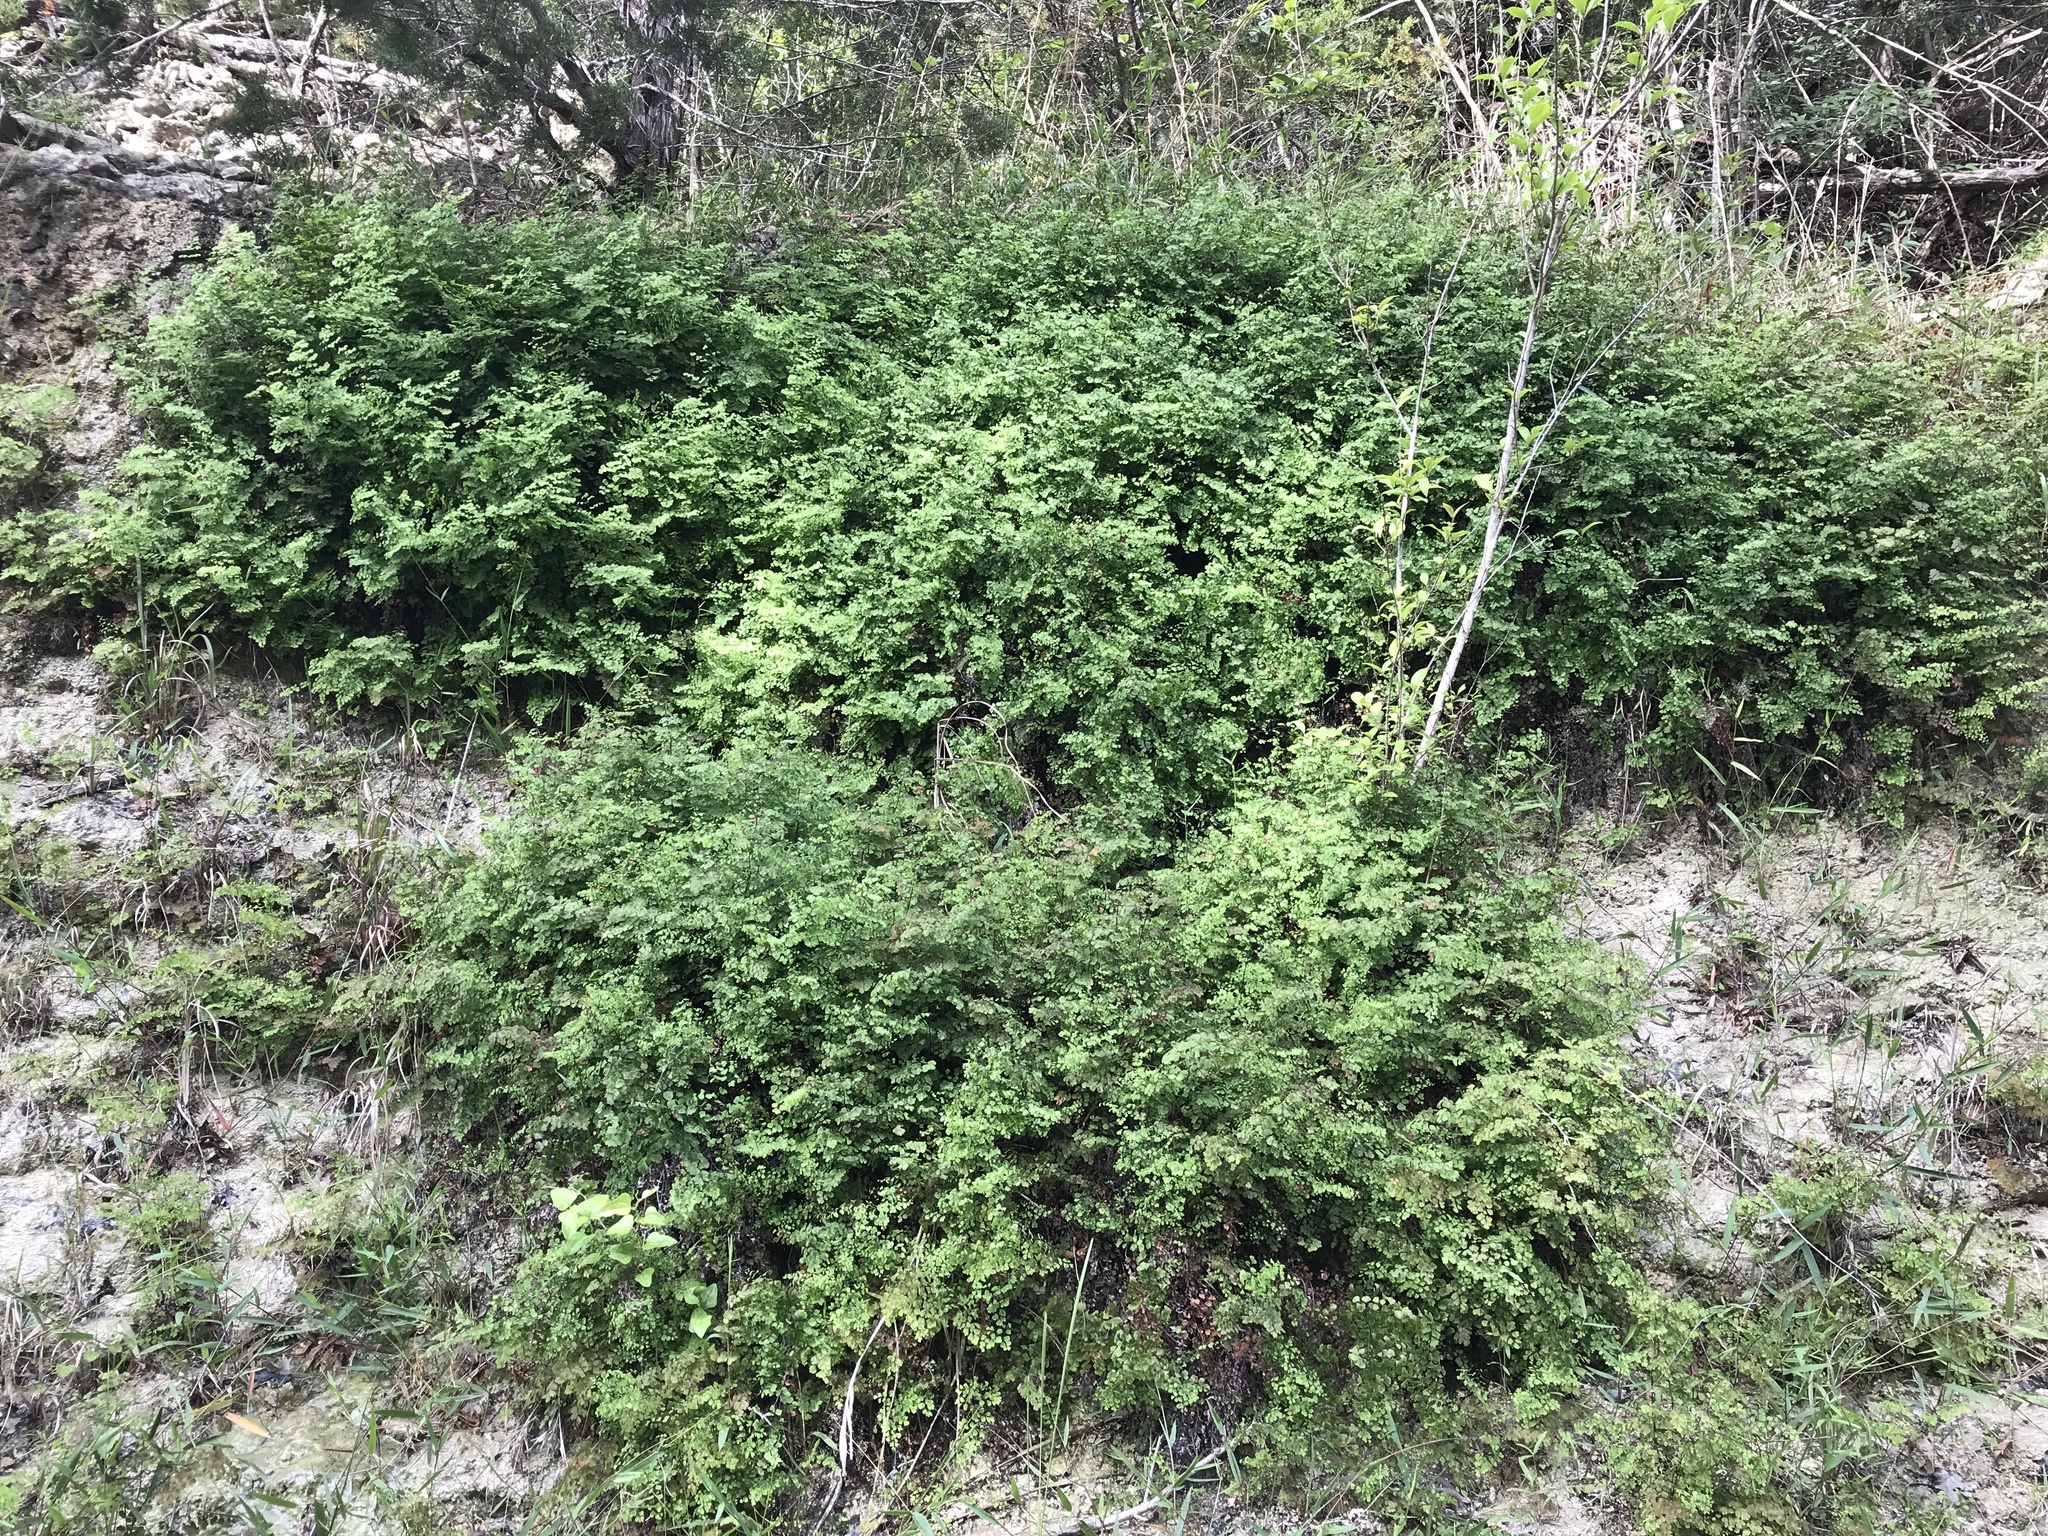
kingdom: Plantae
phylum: Tracheophyta
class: Polypodiopsida
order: Polypodiales
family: Pteridaceae
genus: Adiantum
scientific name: Adiantum capillus-veneris
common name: Maidenhair fern
